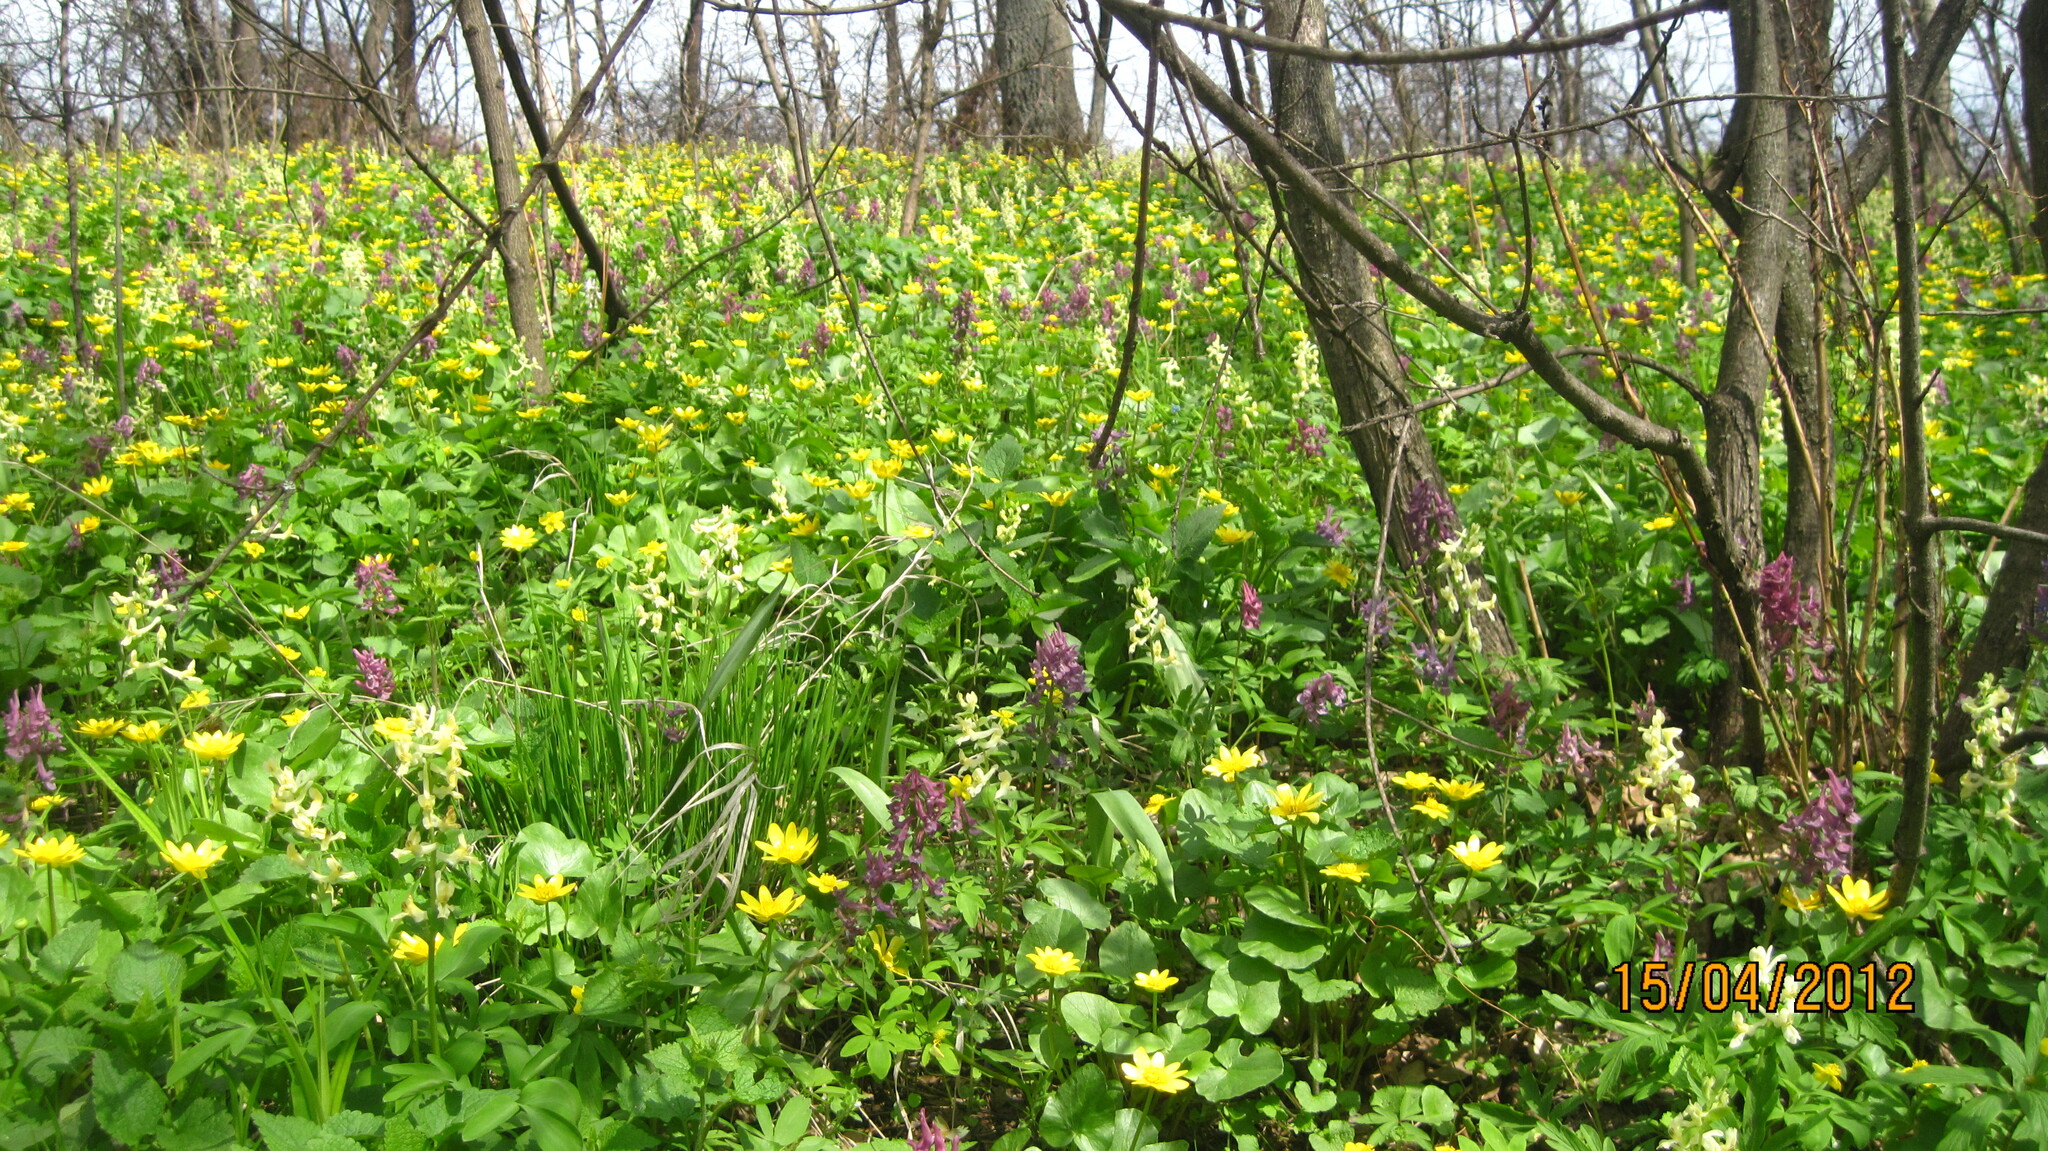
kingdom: Plantae
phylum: Tracheophyta
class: Magnoliopsida
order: Ranunculales
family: Papaveraceae
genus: Corydalis
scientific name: Corydalis cava
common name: Hollowroot
